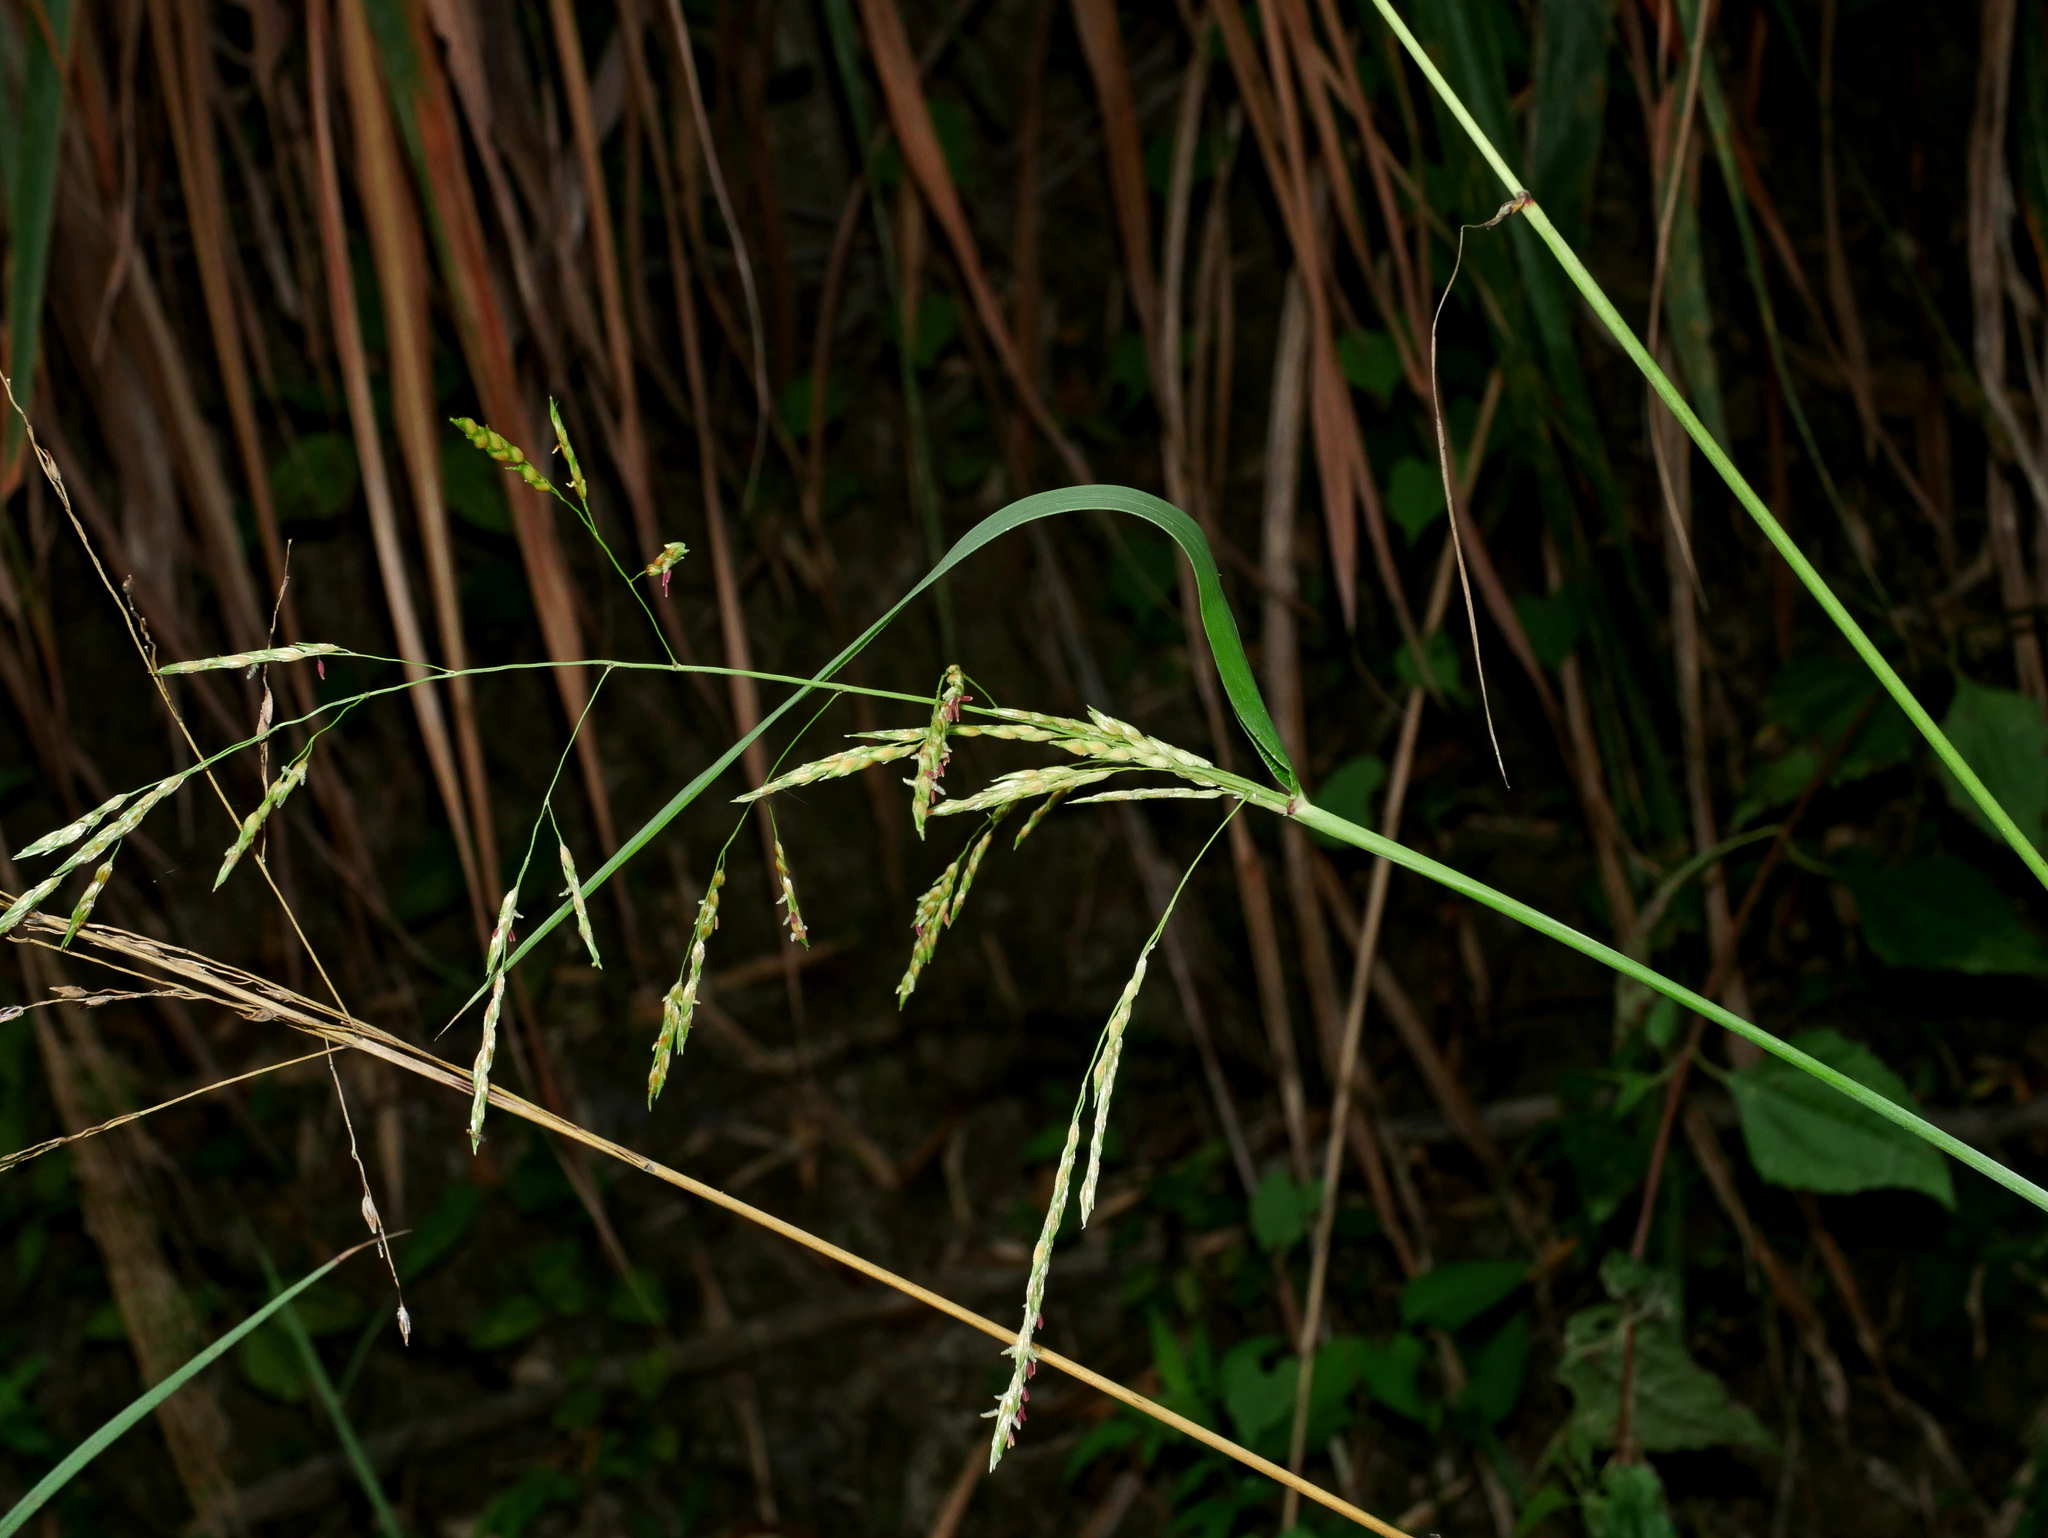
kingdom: Plantae
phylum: Tracheophyta
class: Liliopsida
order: Poales
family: Poaceae
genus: Sorghum
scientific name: Sorghum arundinaceum
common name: Sorghum
